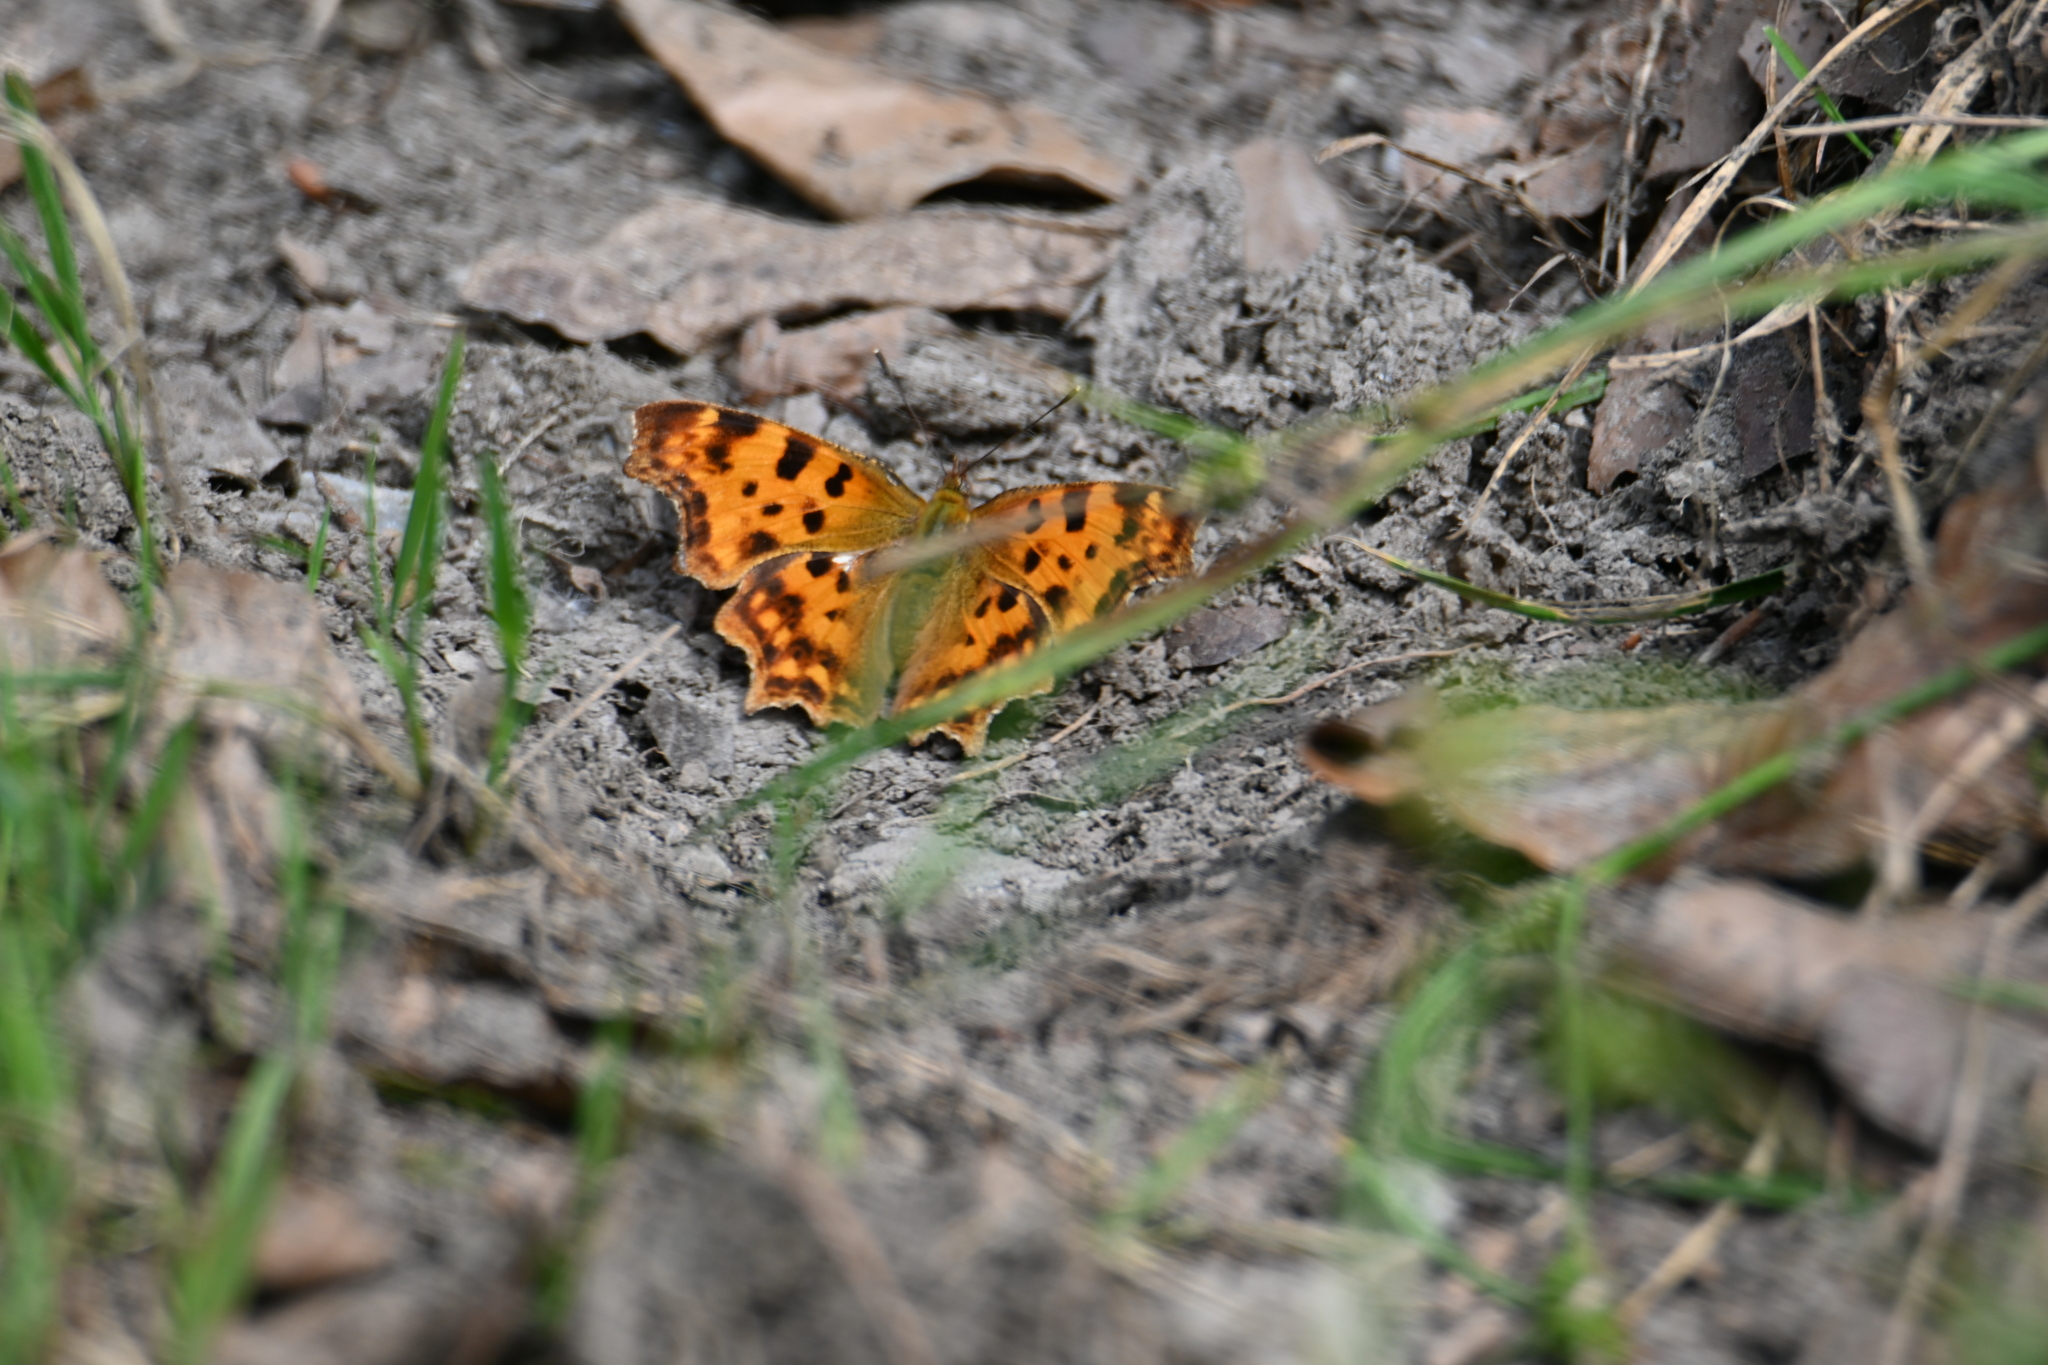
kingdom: Animalia
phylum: Arthropoda
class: Insecta
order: Lepidoptera
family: Nymphalidae
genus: Polygonia
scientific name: Polygonia c-album
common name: Comma
